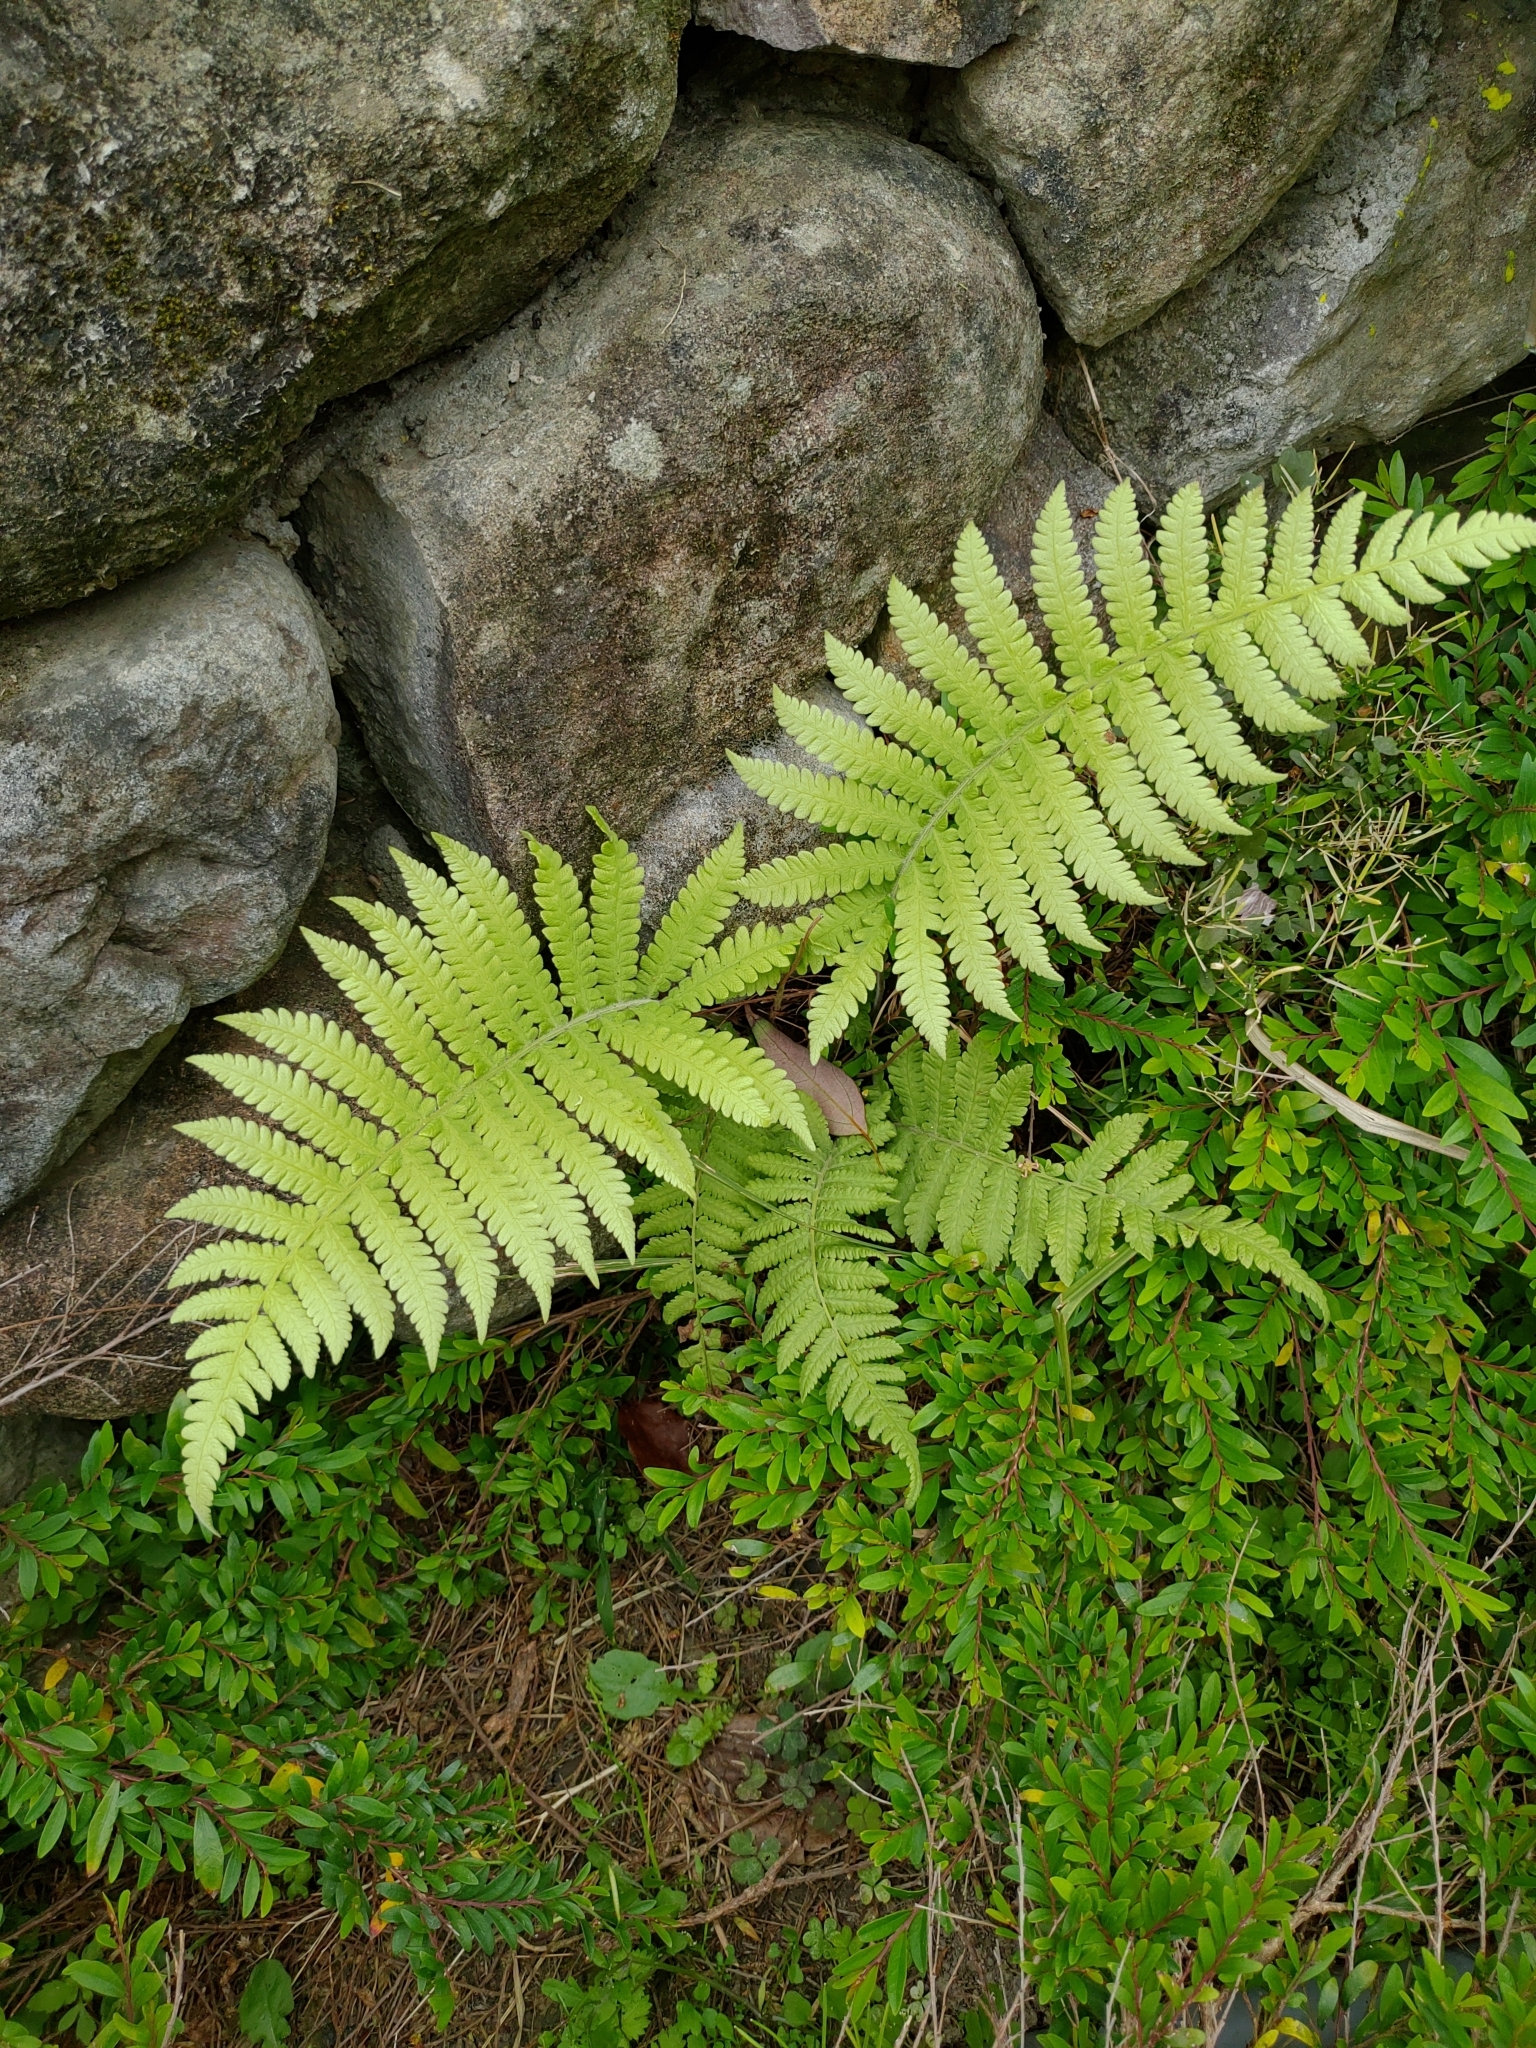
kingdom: Plantae
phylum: Tracheophyta
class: Polypodiopsida
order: Polypodiales
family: Thelypteridaceae
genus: Christella
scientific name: Christella parasitica
